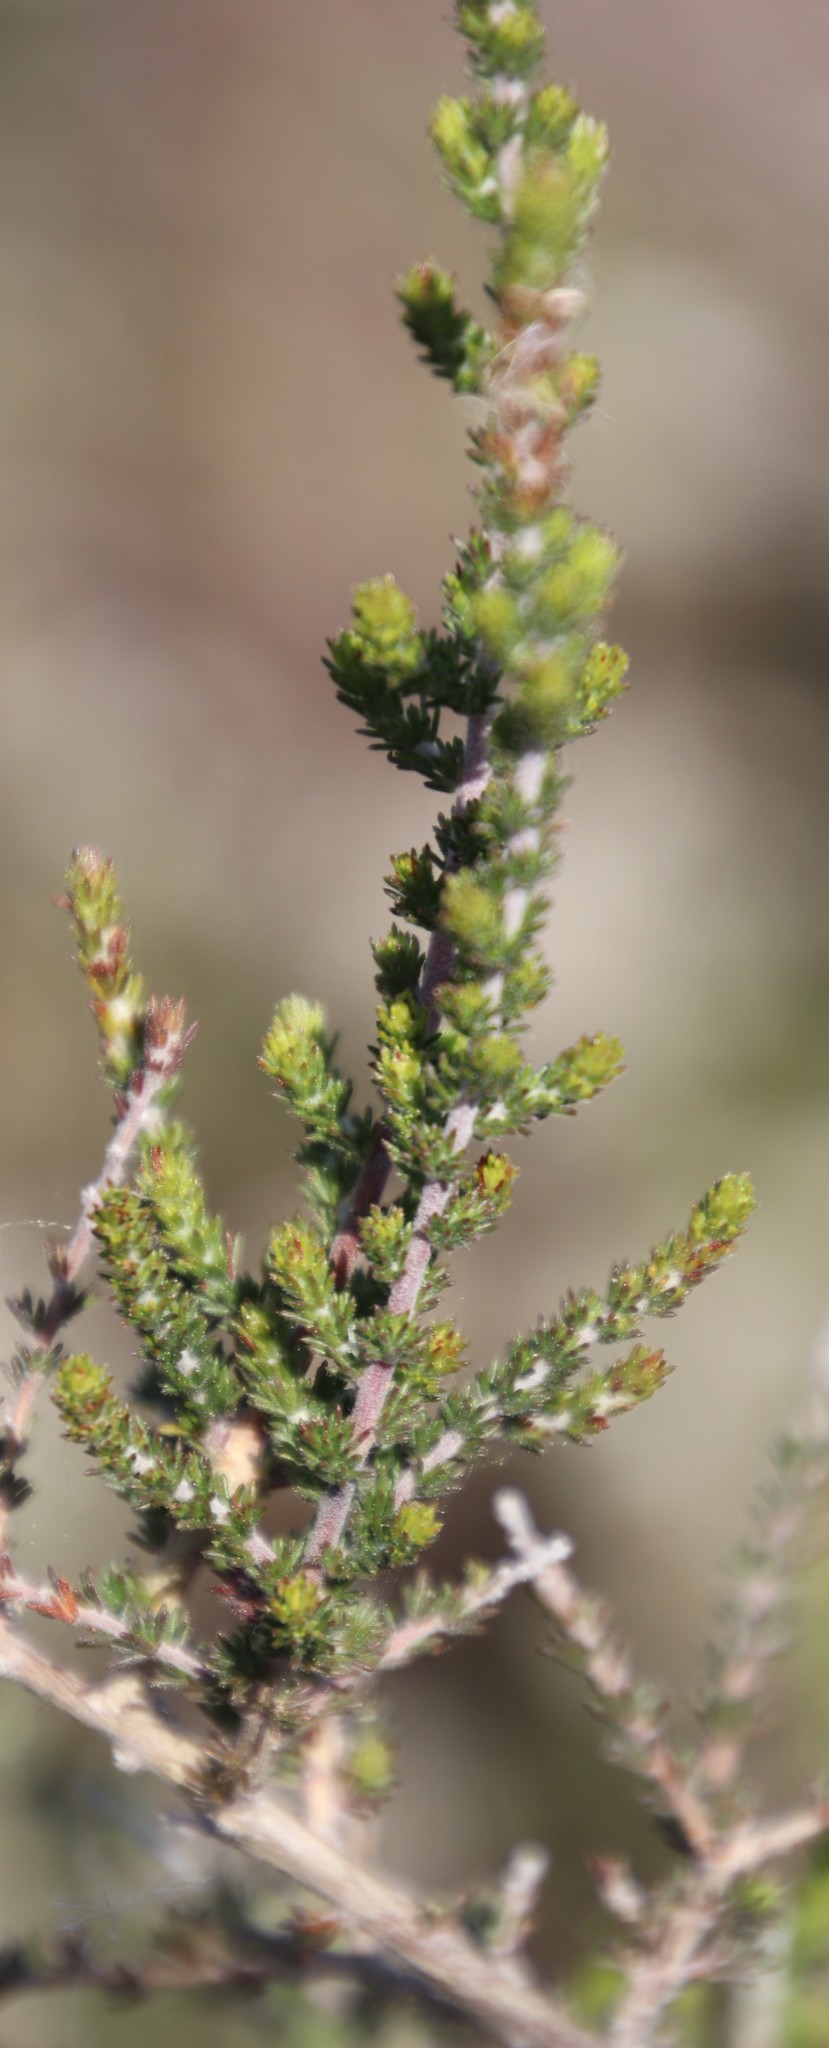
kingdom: Plantae
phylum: Tracheophyta
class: Magnoliopsida
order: Fabales
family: Fabaceae
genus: Aspalathus
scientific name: Aspalathus hispida
